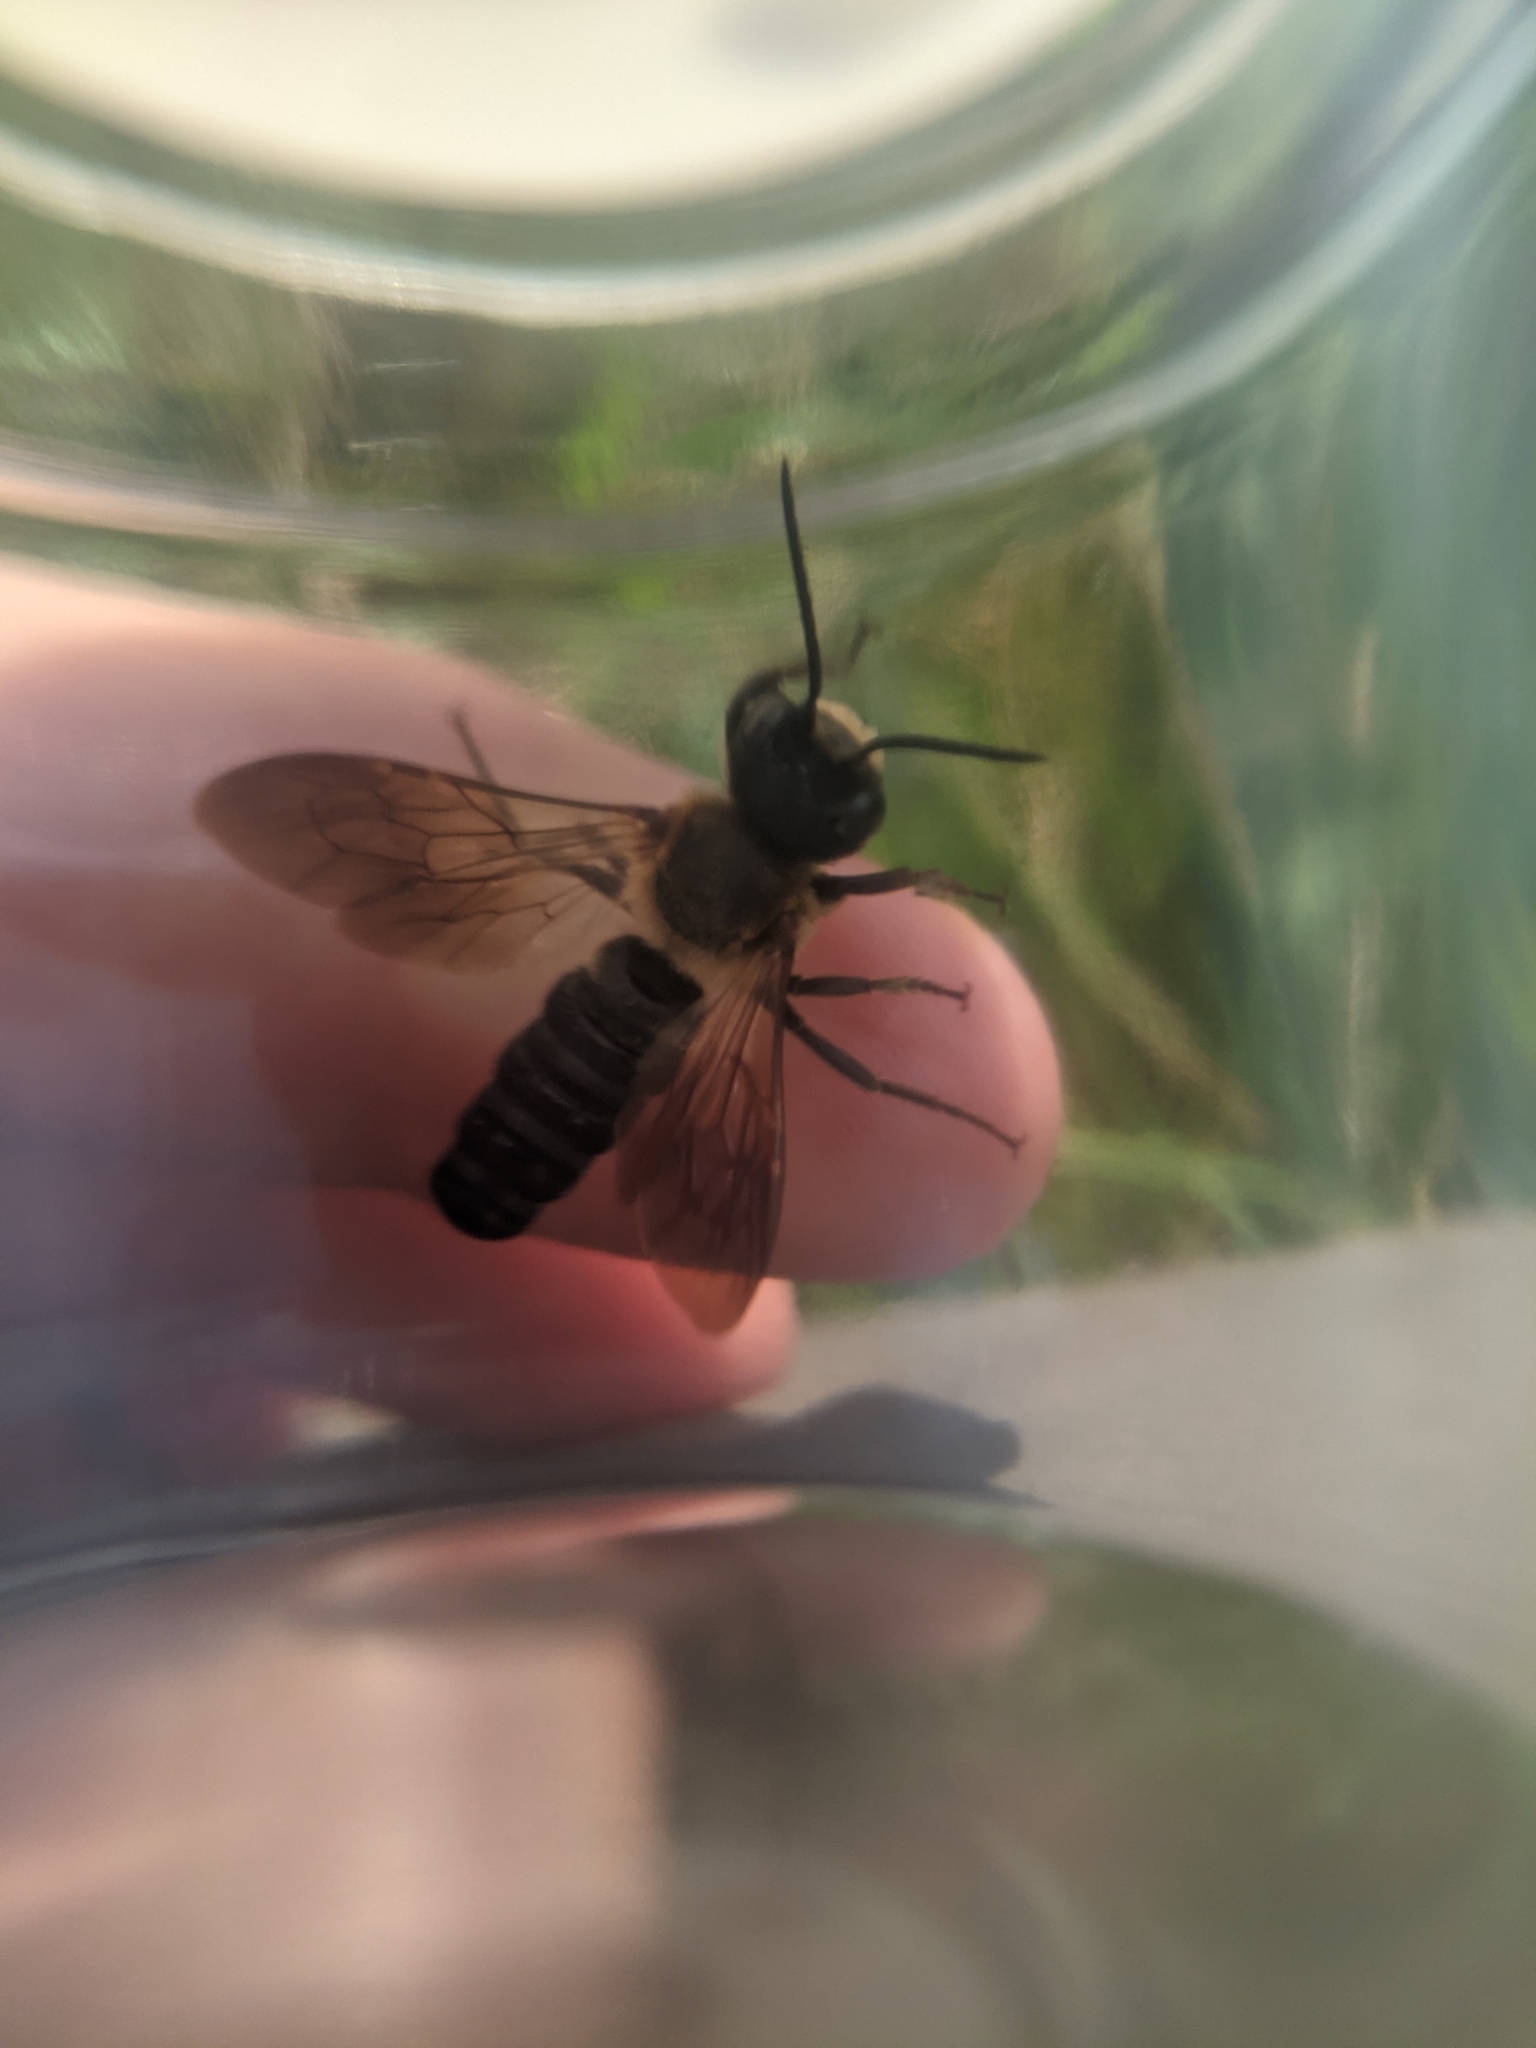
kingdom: Animalia
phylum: Arthropoda
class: Insecta
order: Hymenoptera
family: Megachilidae
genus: Megachile
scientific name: Megachile sculpturalis
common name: Sculptured resin bee
